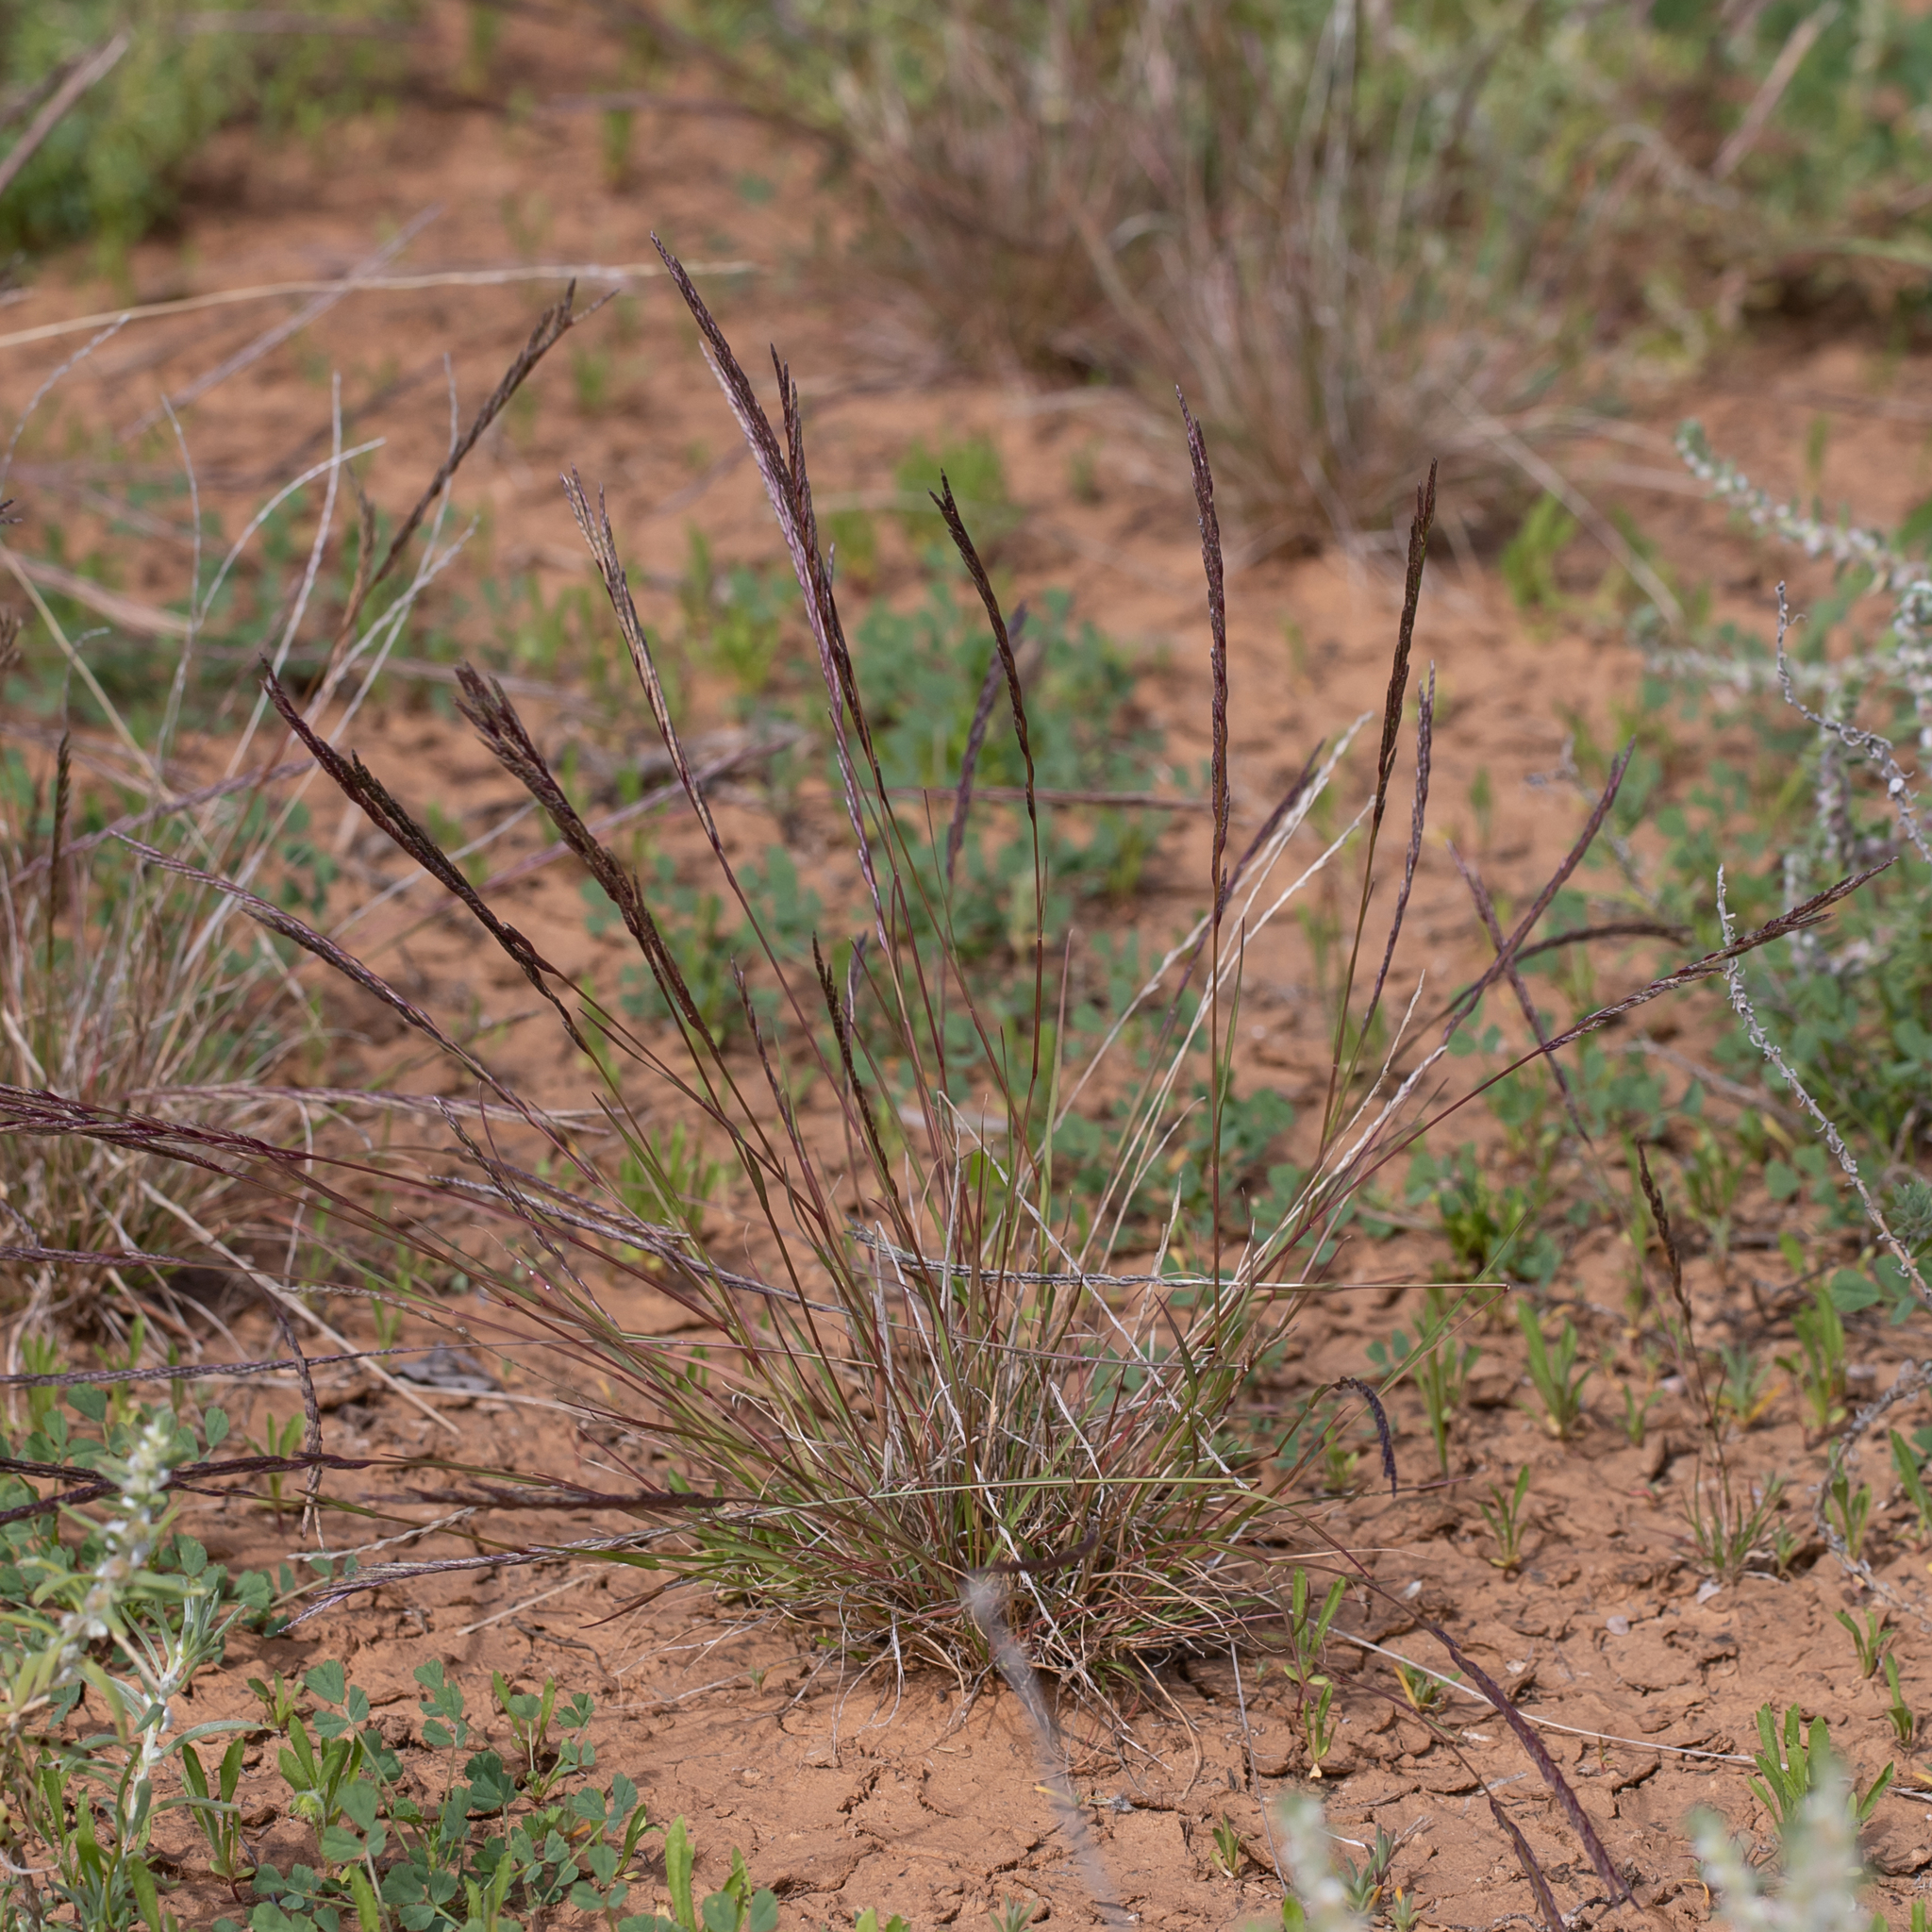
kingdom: Plantae
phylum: Tracheophyta
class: Liliopsida
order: Poales
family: Poaceae
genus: Tripogonella
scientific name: Tripogonella loliiformis
